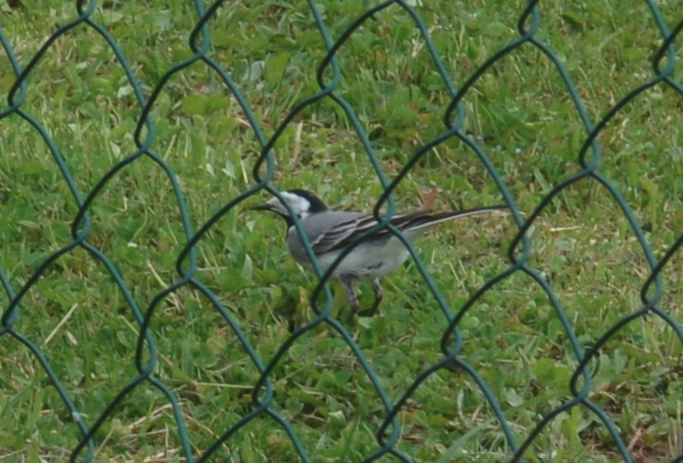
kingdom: Animalia
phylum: Chordata
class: Aves
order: Passeriformes
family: Motacillidae
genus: Motacilla
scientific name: Motacilla alba
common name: White wagtail
